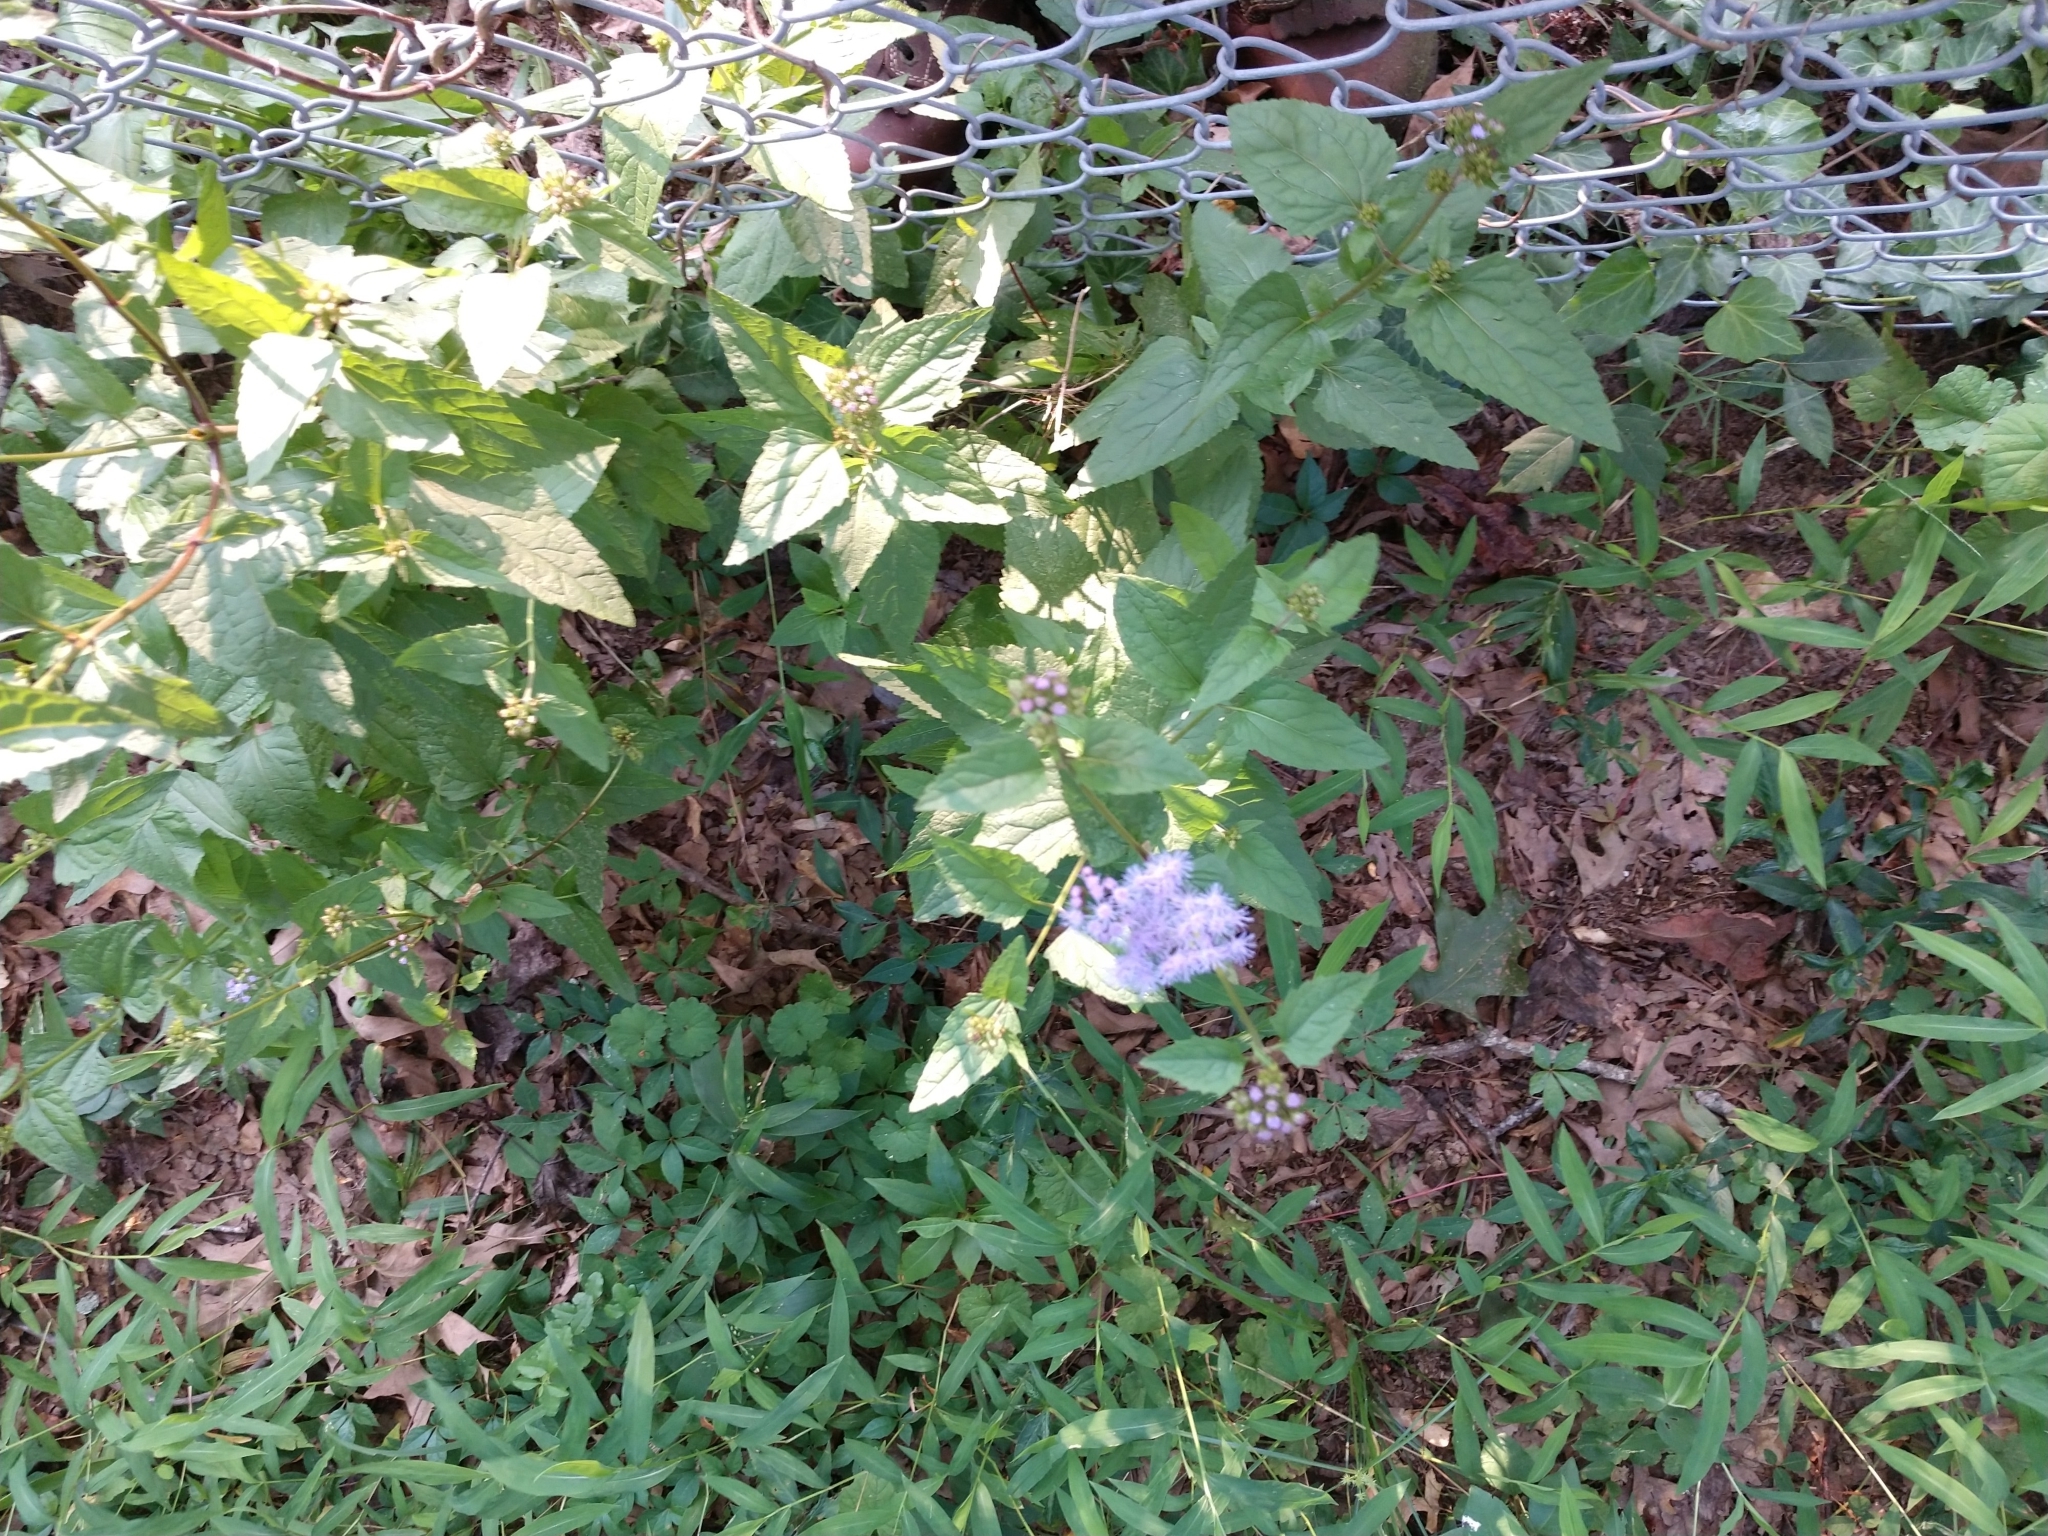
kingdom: Plantae
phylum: Tracheophyta
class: Magnoliopsida
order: Asterales
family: Asteraceae
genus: Conoclinium
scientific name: Conoclinium coelestinum
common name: Blue mistflower
